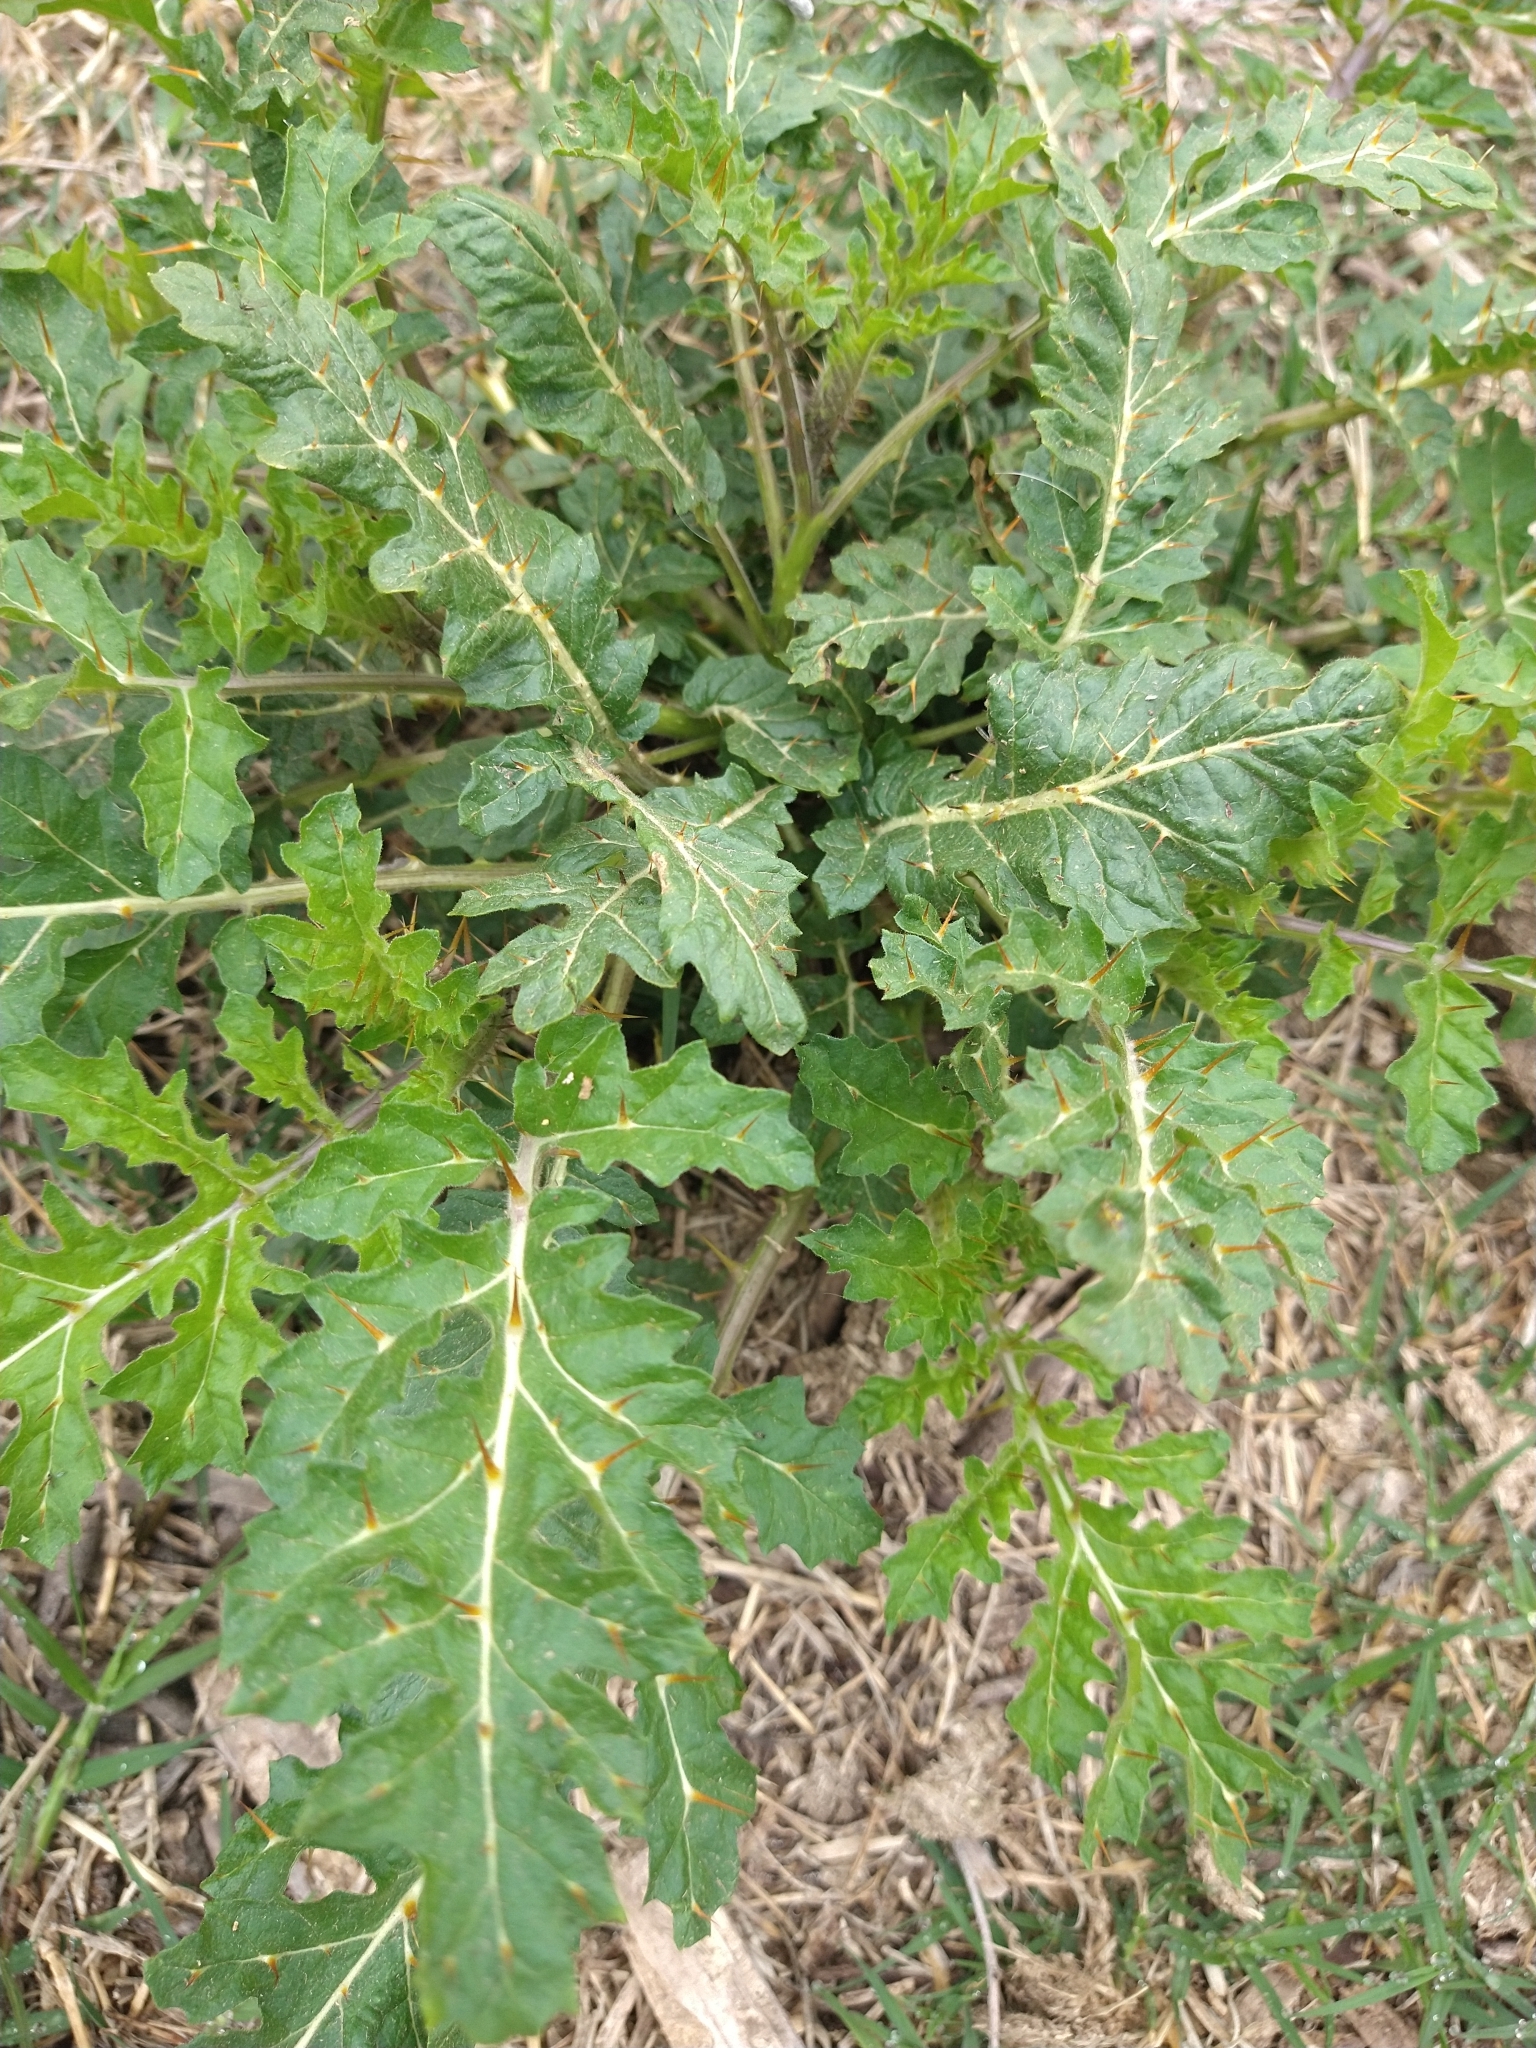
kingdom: Plantae
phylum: Tracheophyta
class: Magnoliopsida
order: Solanales
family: Solanaceae
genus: Solanum
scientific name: Solanum sisymbriifolium
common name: Red buffalo-bur
